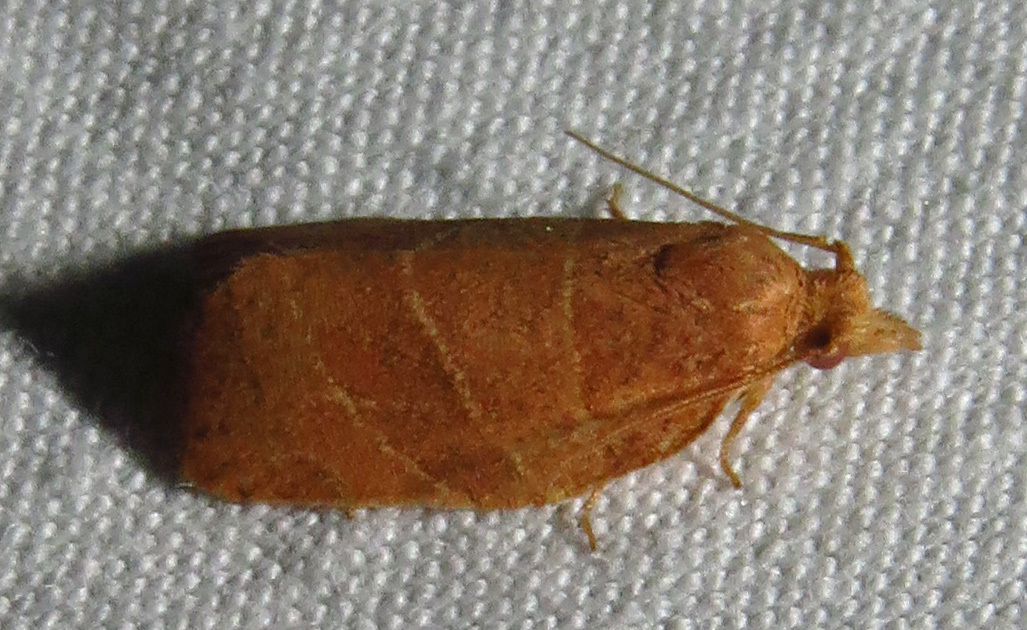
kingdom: Animalia
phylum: Arthropoda
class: Insecta
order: Lepidoptera
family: Tortricidae
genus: Pandemis
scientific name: Pandemis limitata
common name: Three-lined leafroller moth
